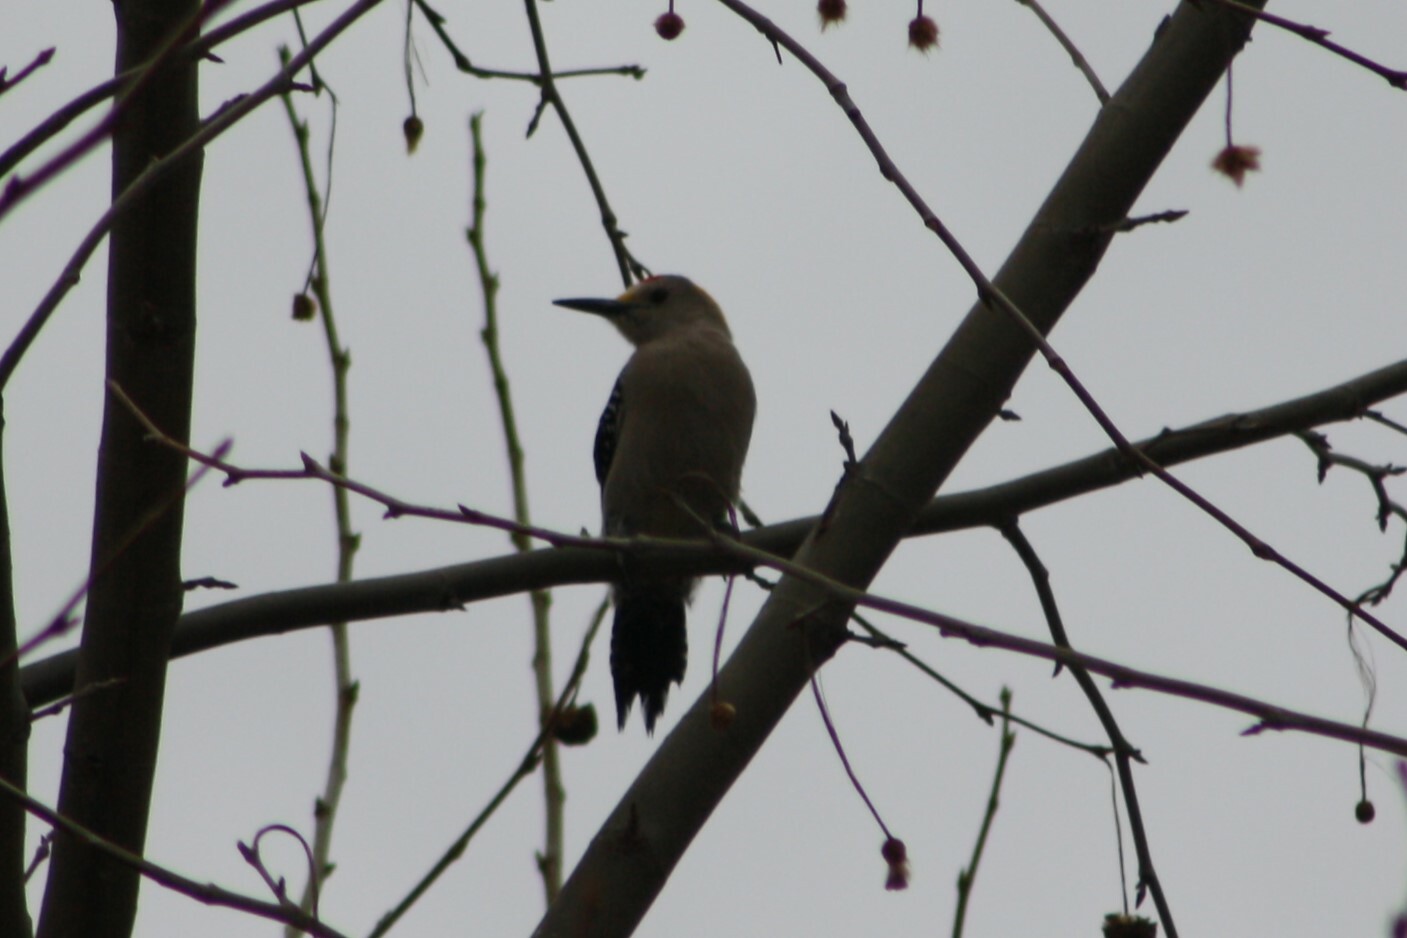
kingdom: Animalia
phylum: Chordata
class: Aves
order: Piciformes
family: Picidae
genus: Melanerpes
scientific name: Melanerpes aurifrons
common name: Golden-fronted woodpecker
